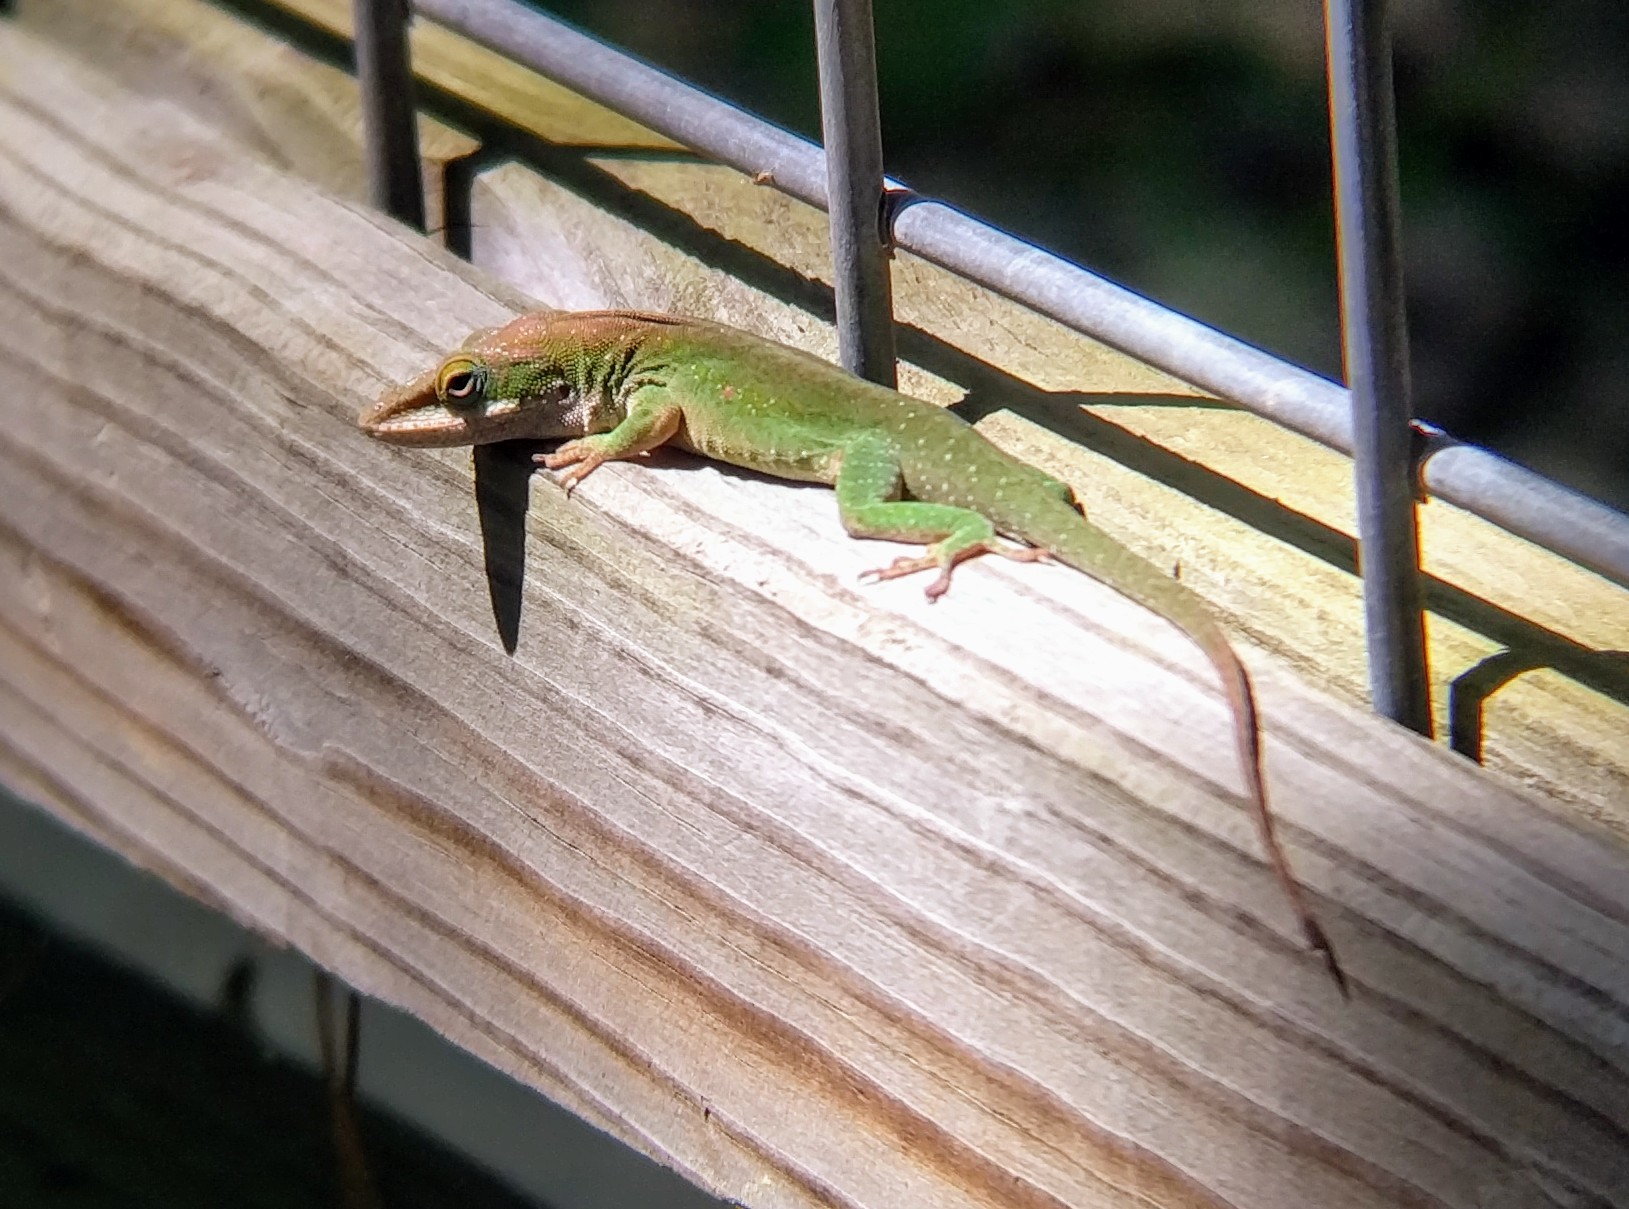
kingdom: Animalia
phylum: Chordata
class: Squamata
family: Dactyloidae
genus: Anolis
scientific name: Anolis carolinensis
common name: Green anole
